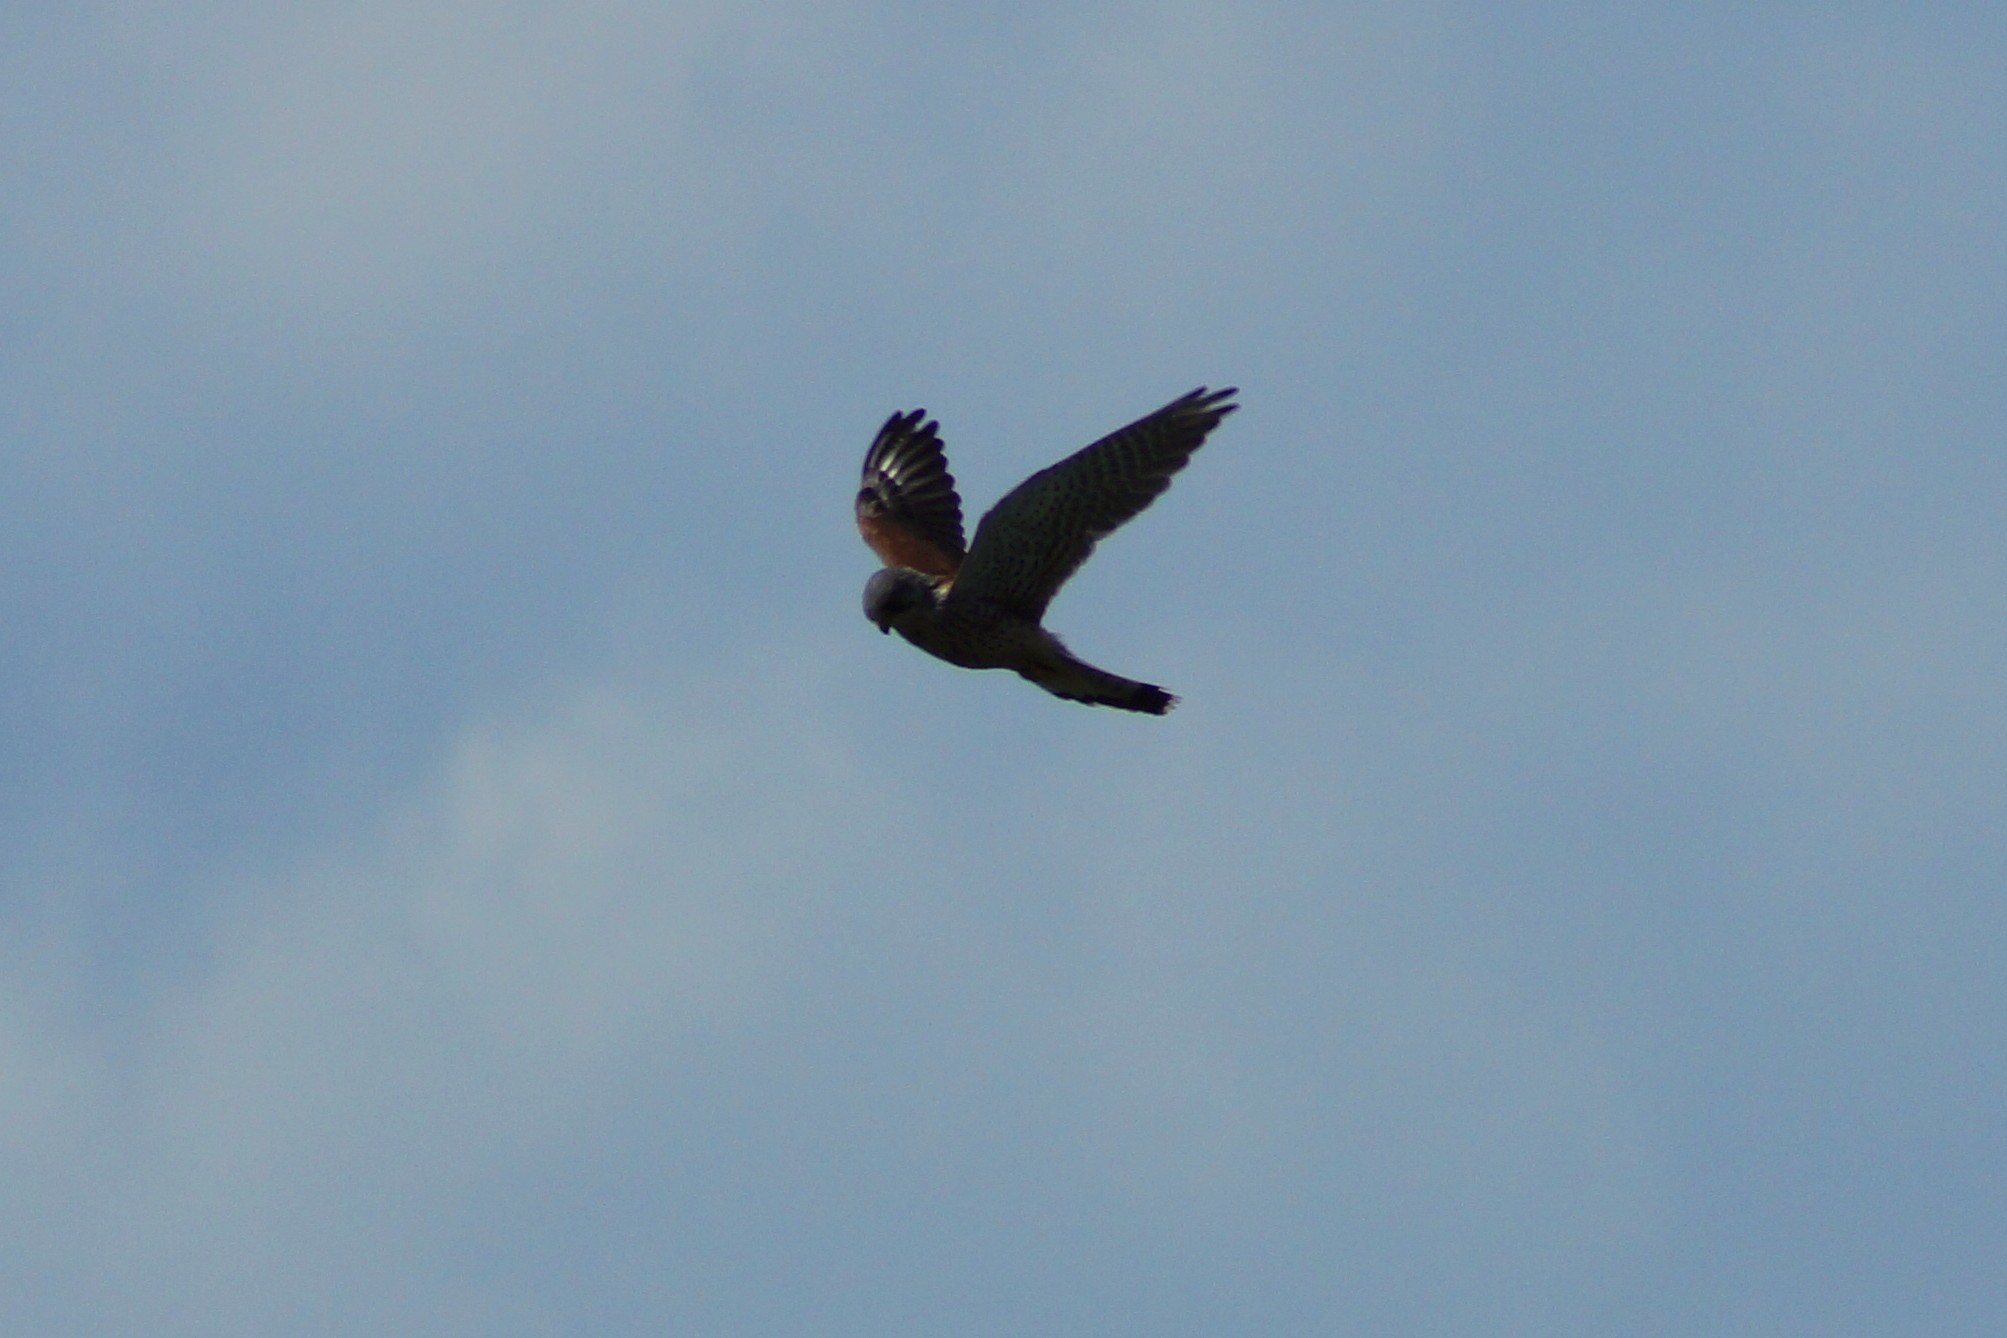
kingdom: Animalia
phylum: Chordata
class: Aves
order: Falconiformes
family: Falconidae
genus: Falco
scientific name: Falco tinnunculus
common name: Common kestrel
